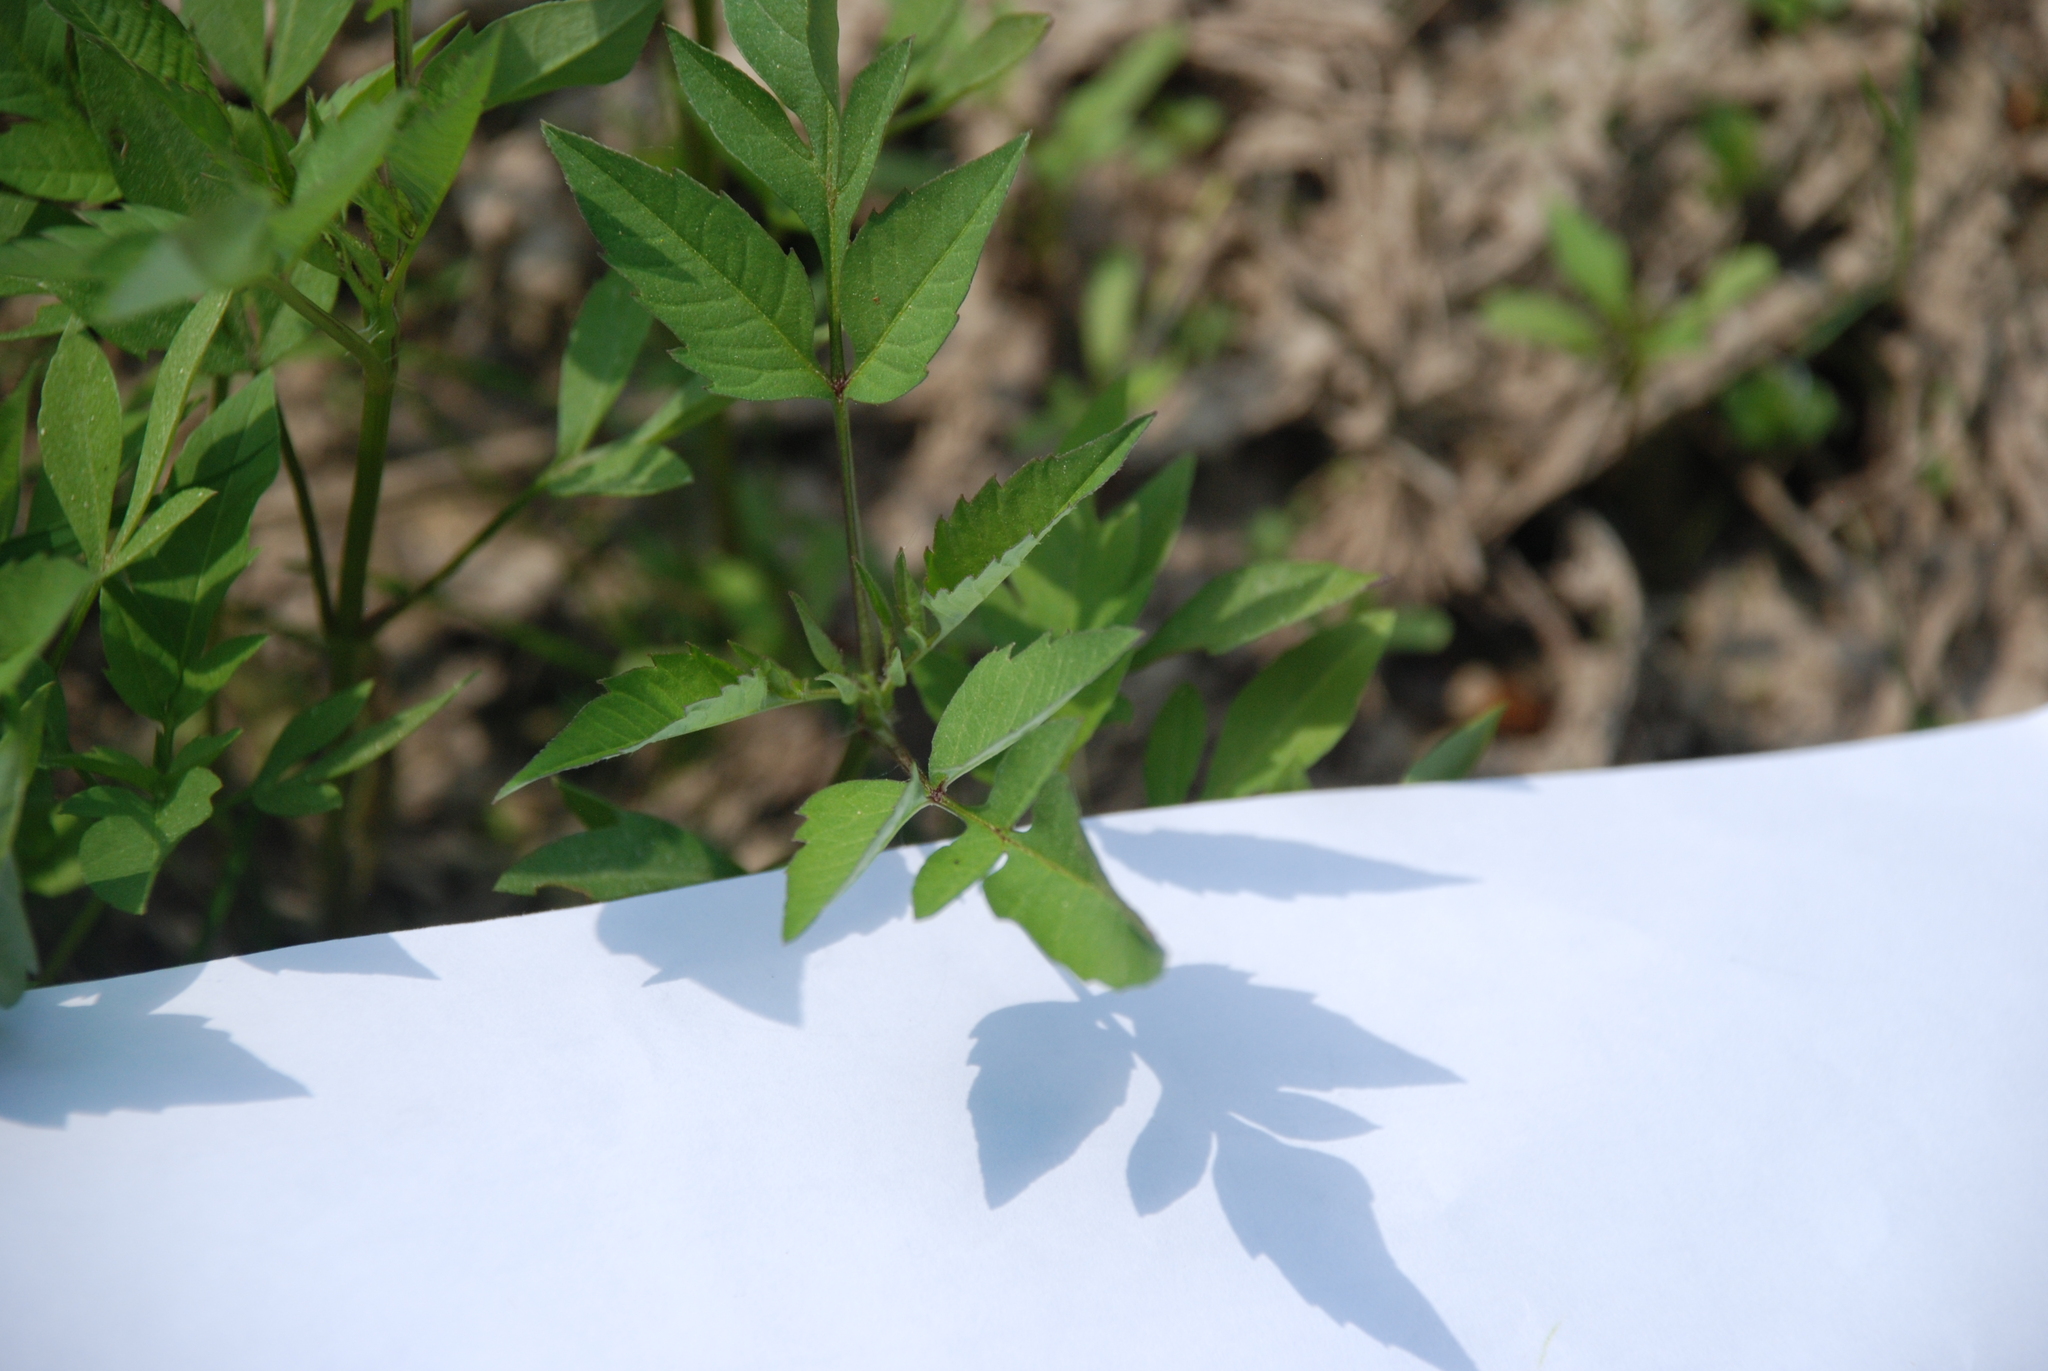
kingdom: Plantae
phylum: Tracheophyta
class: Magnoliopsida
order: Asterales
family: Asteraceae
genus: Bidens
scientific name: Bidens frondosa
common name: Beggarticks
